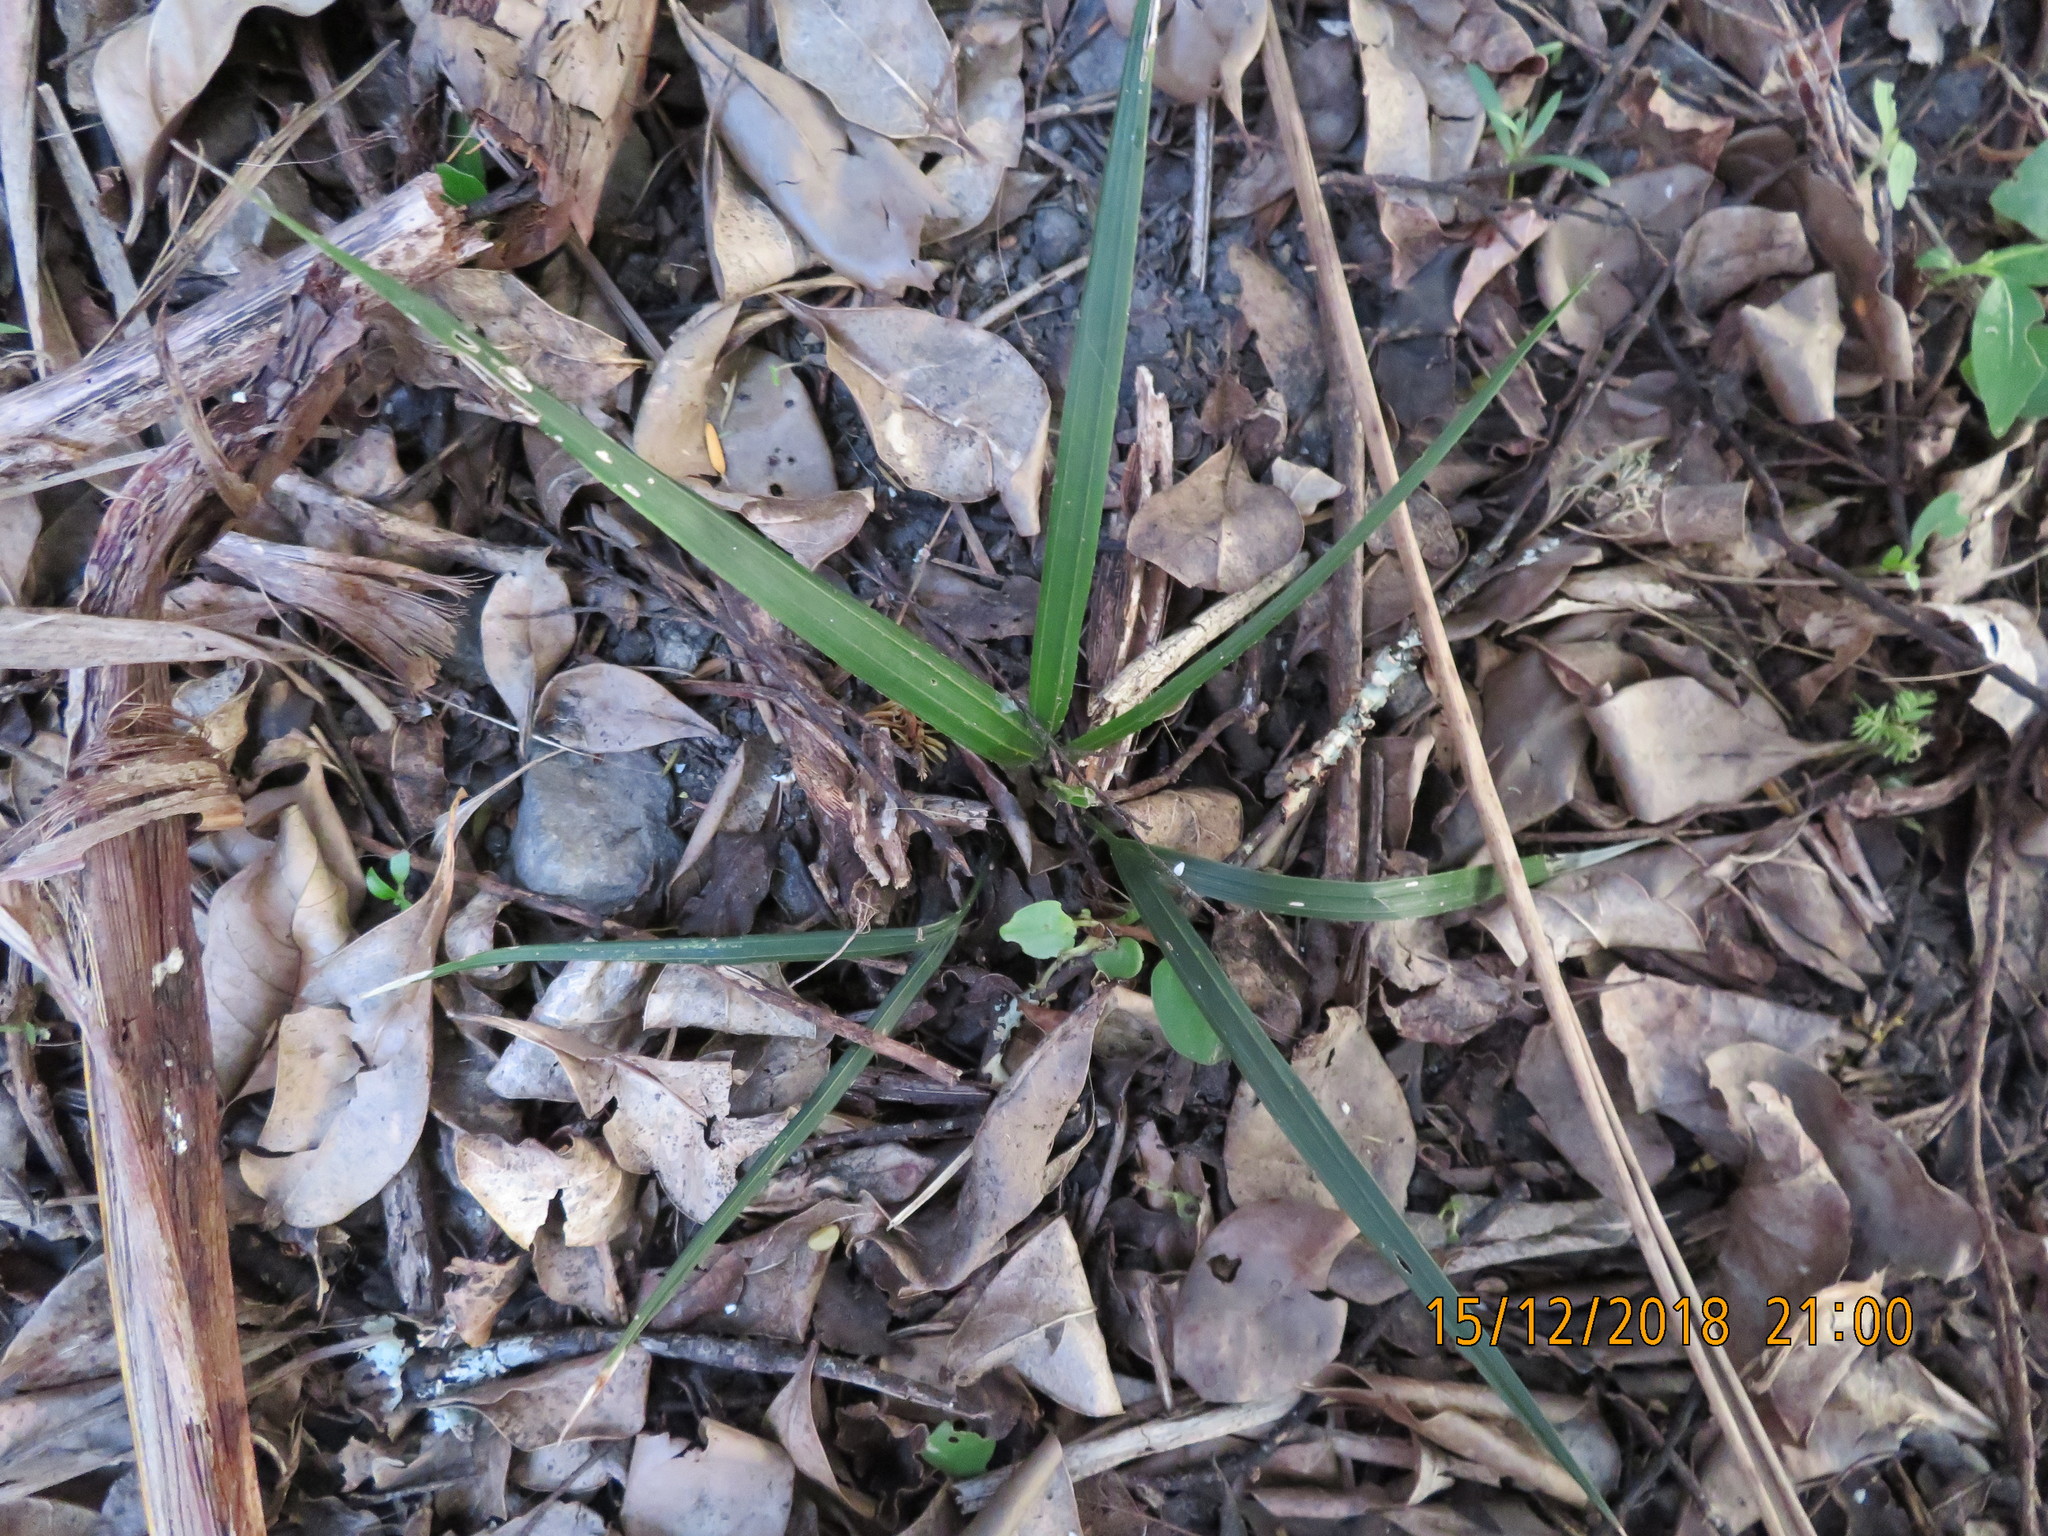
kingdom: Plantae
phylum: Tracheophyta
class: Liliopsida
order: Arecales
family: Arecaceae
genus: Rhopalostylis
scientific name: Rhopalostylis sapida
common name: Feather-duster palm
